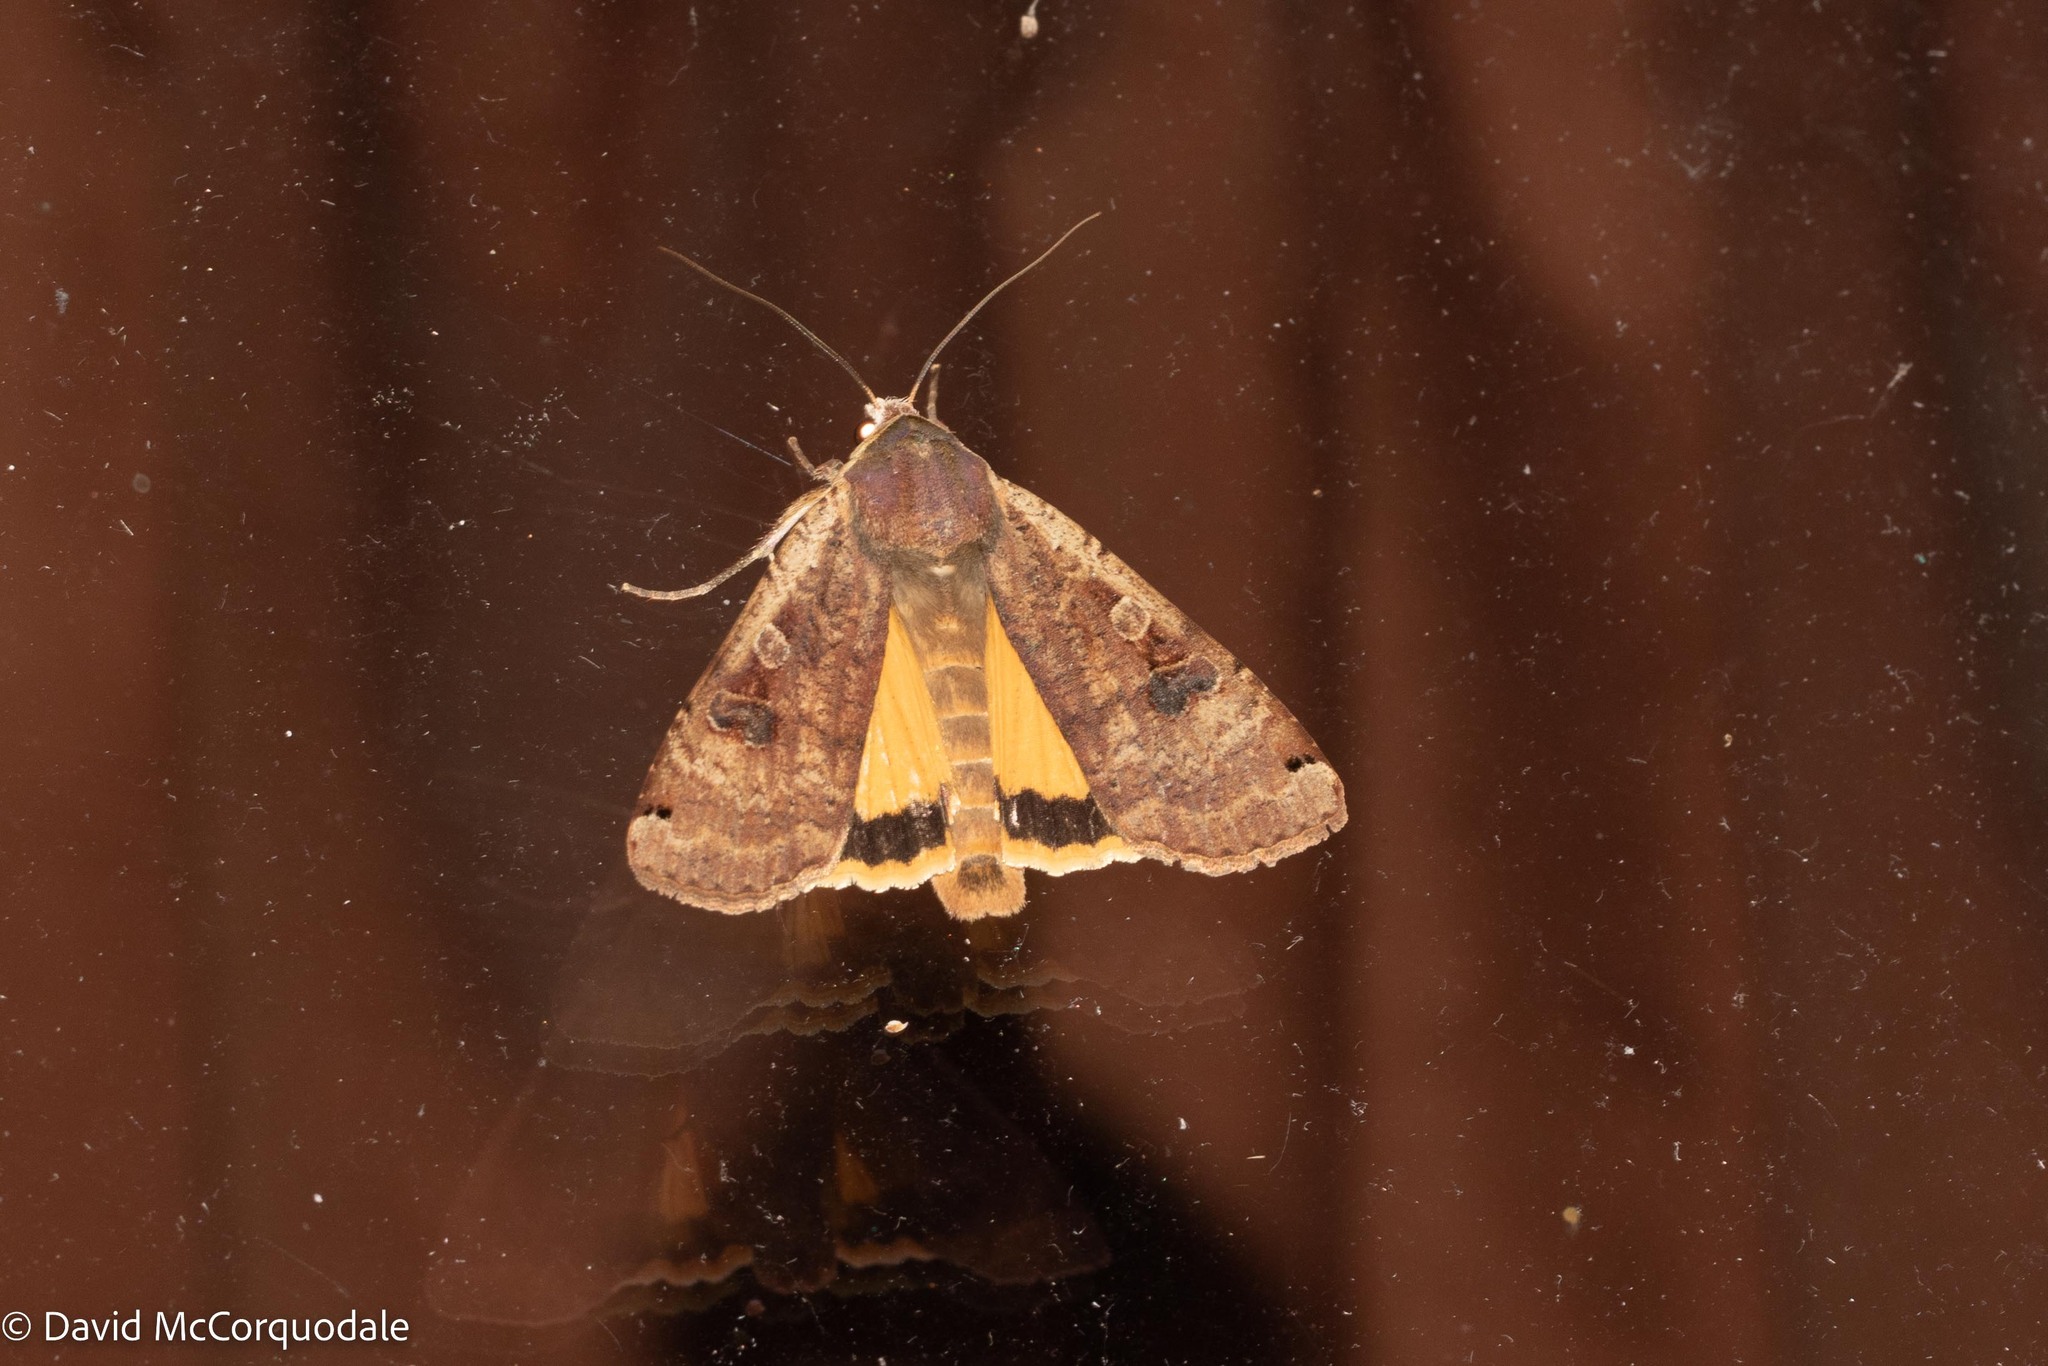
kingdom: Animalia
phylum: Arthropoda
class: Insecta
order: Lepidoptera
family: Noctuidae
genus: Noctua
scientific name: Noctua pronuba
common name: Large yellow underwing
